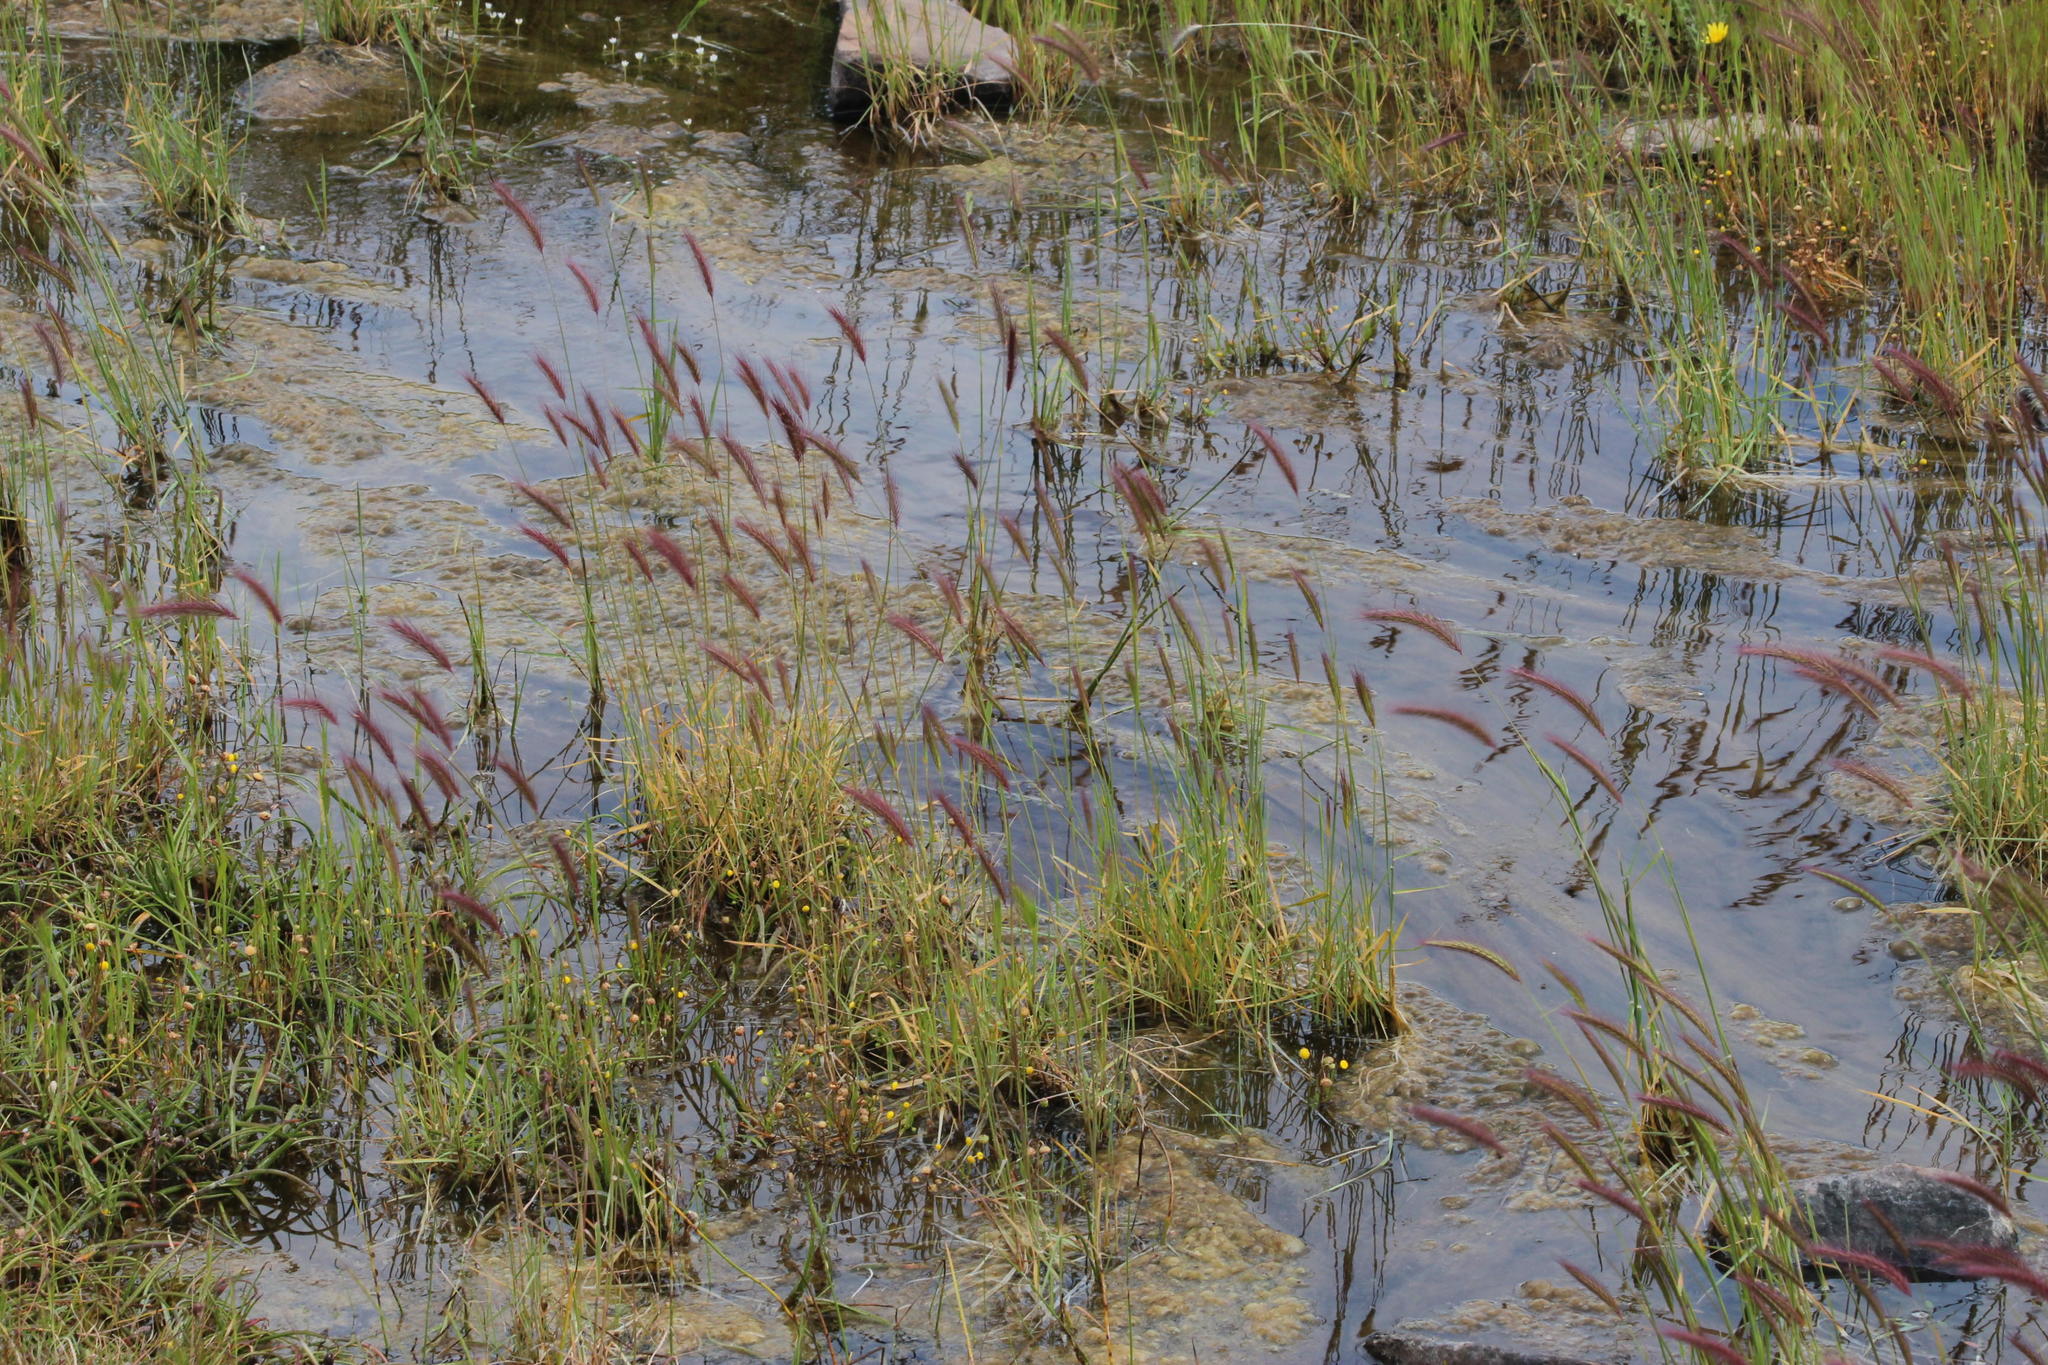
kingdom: Plantae
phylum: Tracheophyta
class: Liliopsida
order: Poales
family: Poaceae
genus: Hordeum
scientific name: Hordeum capense
